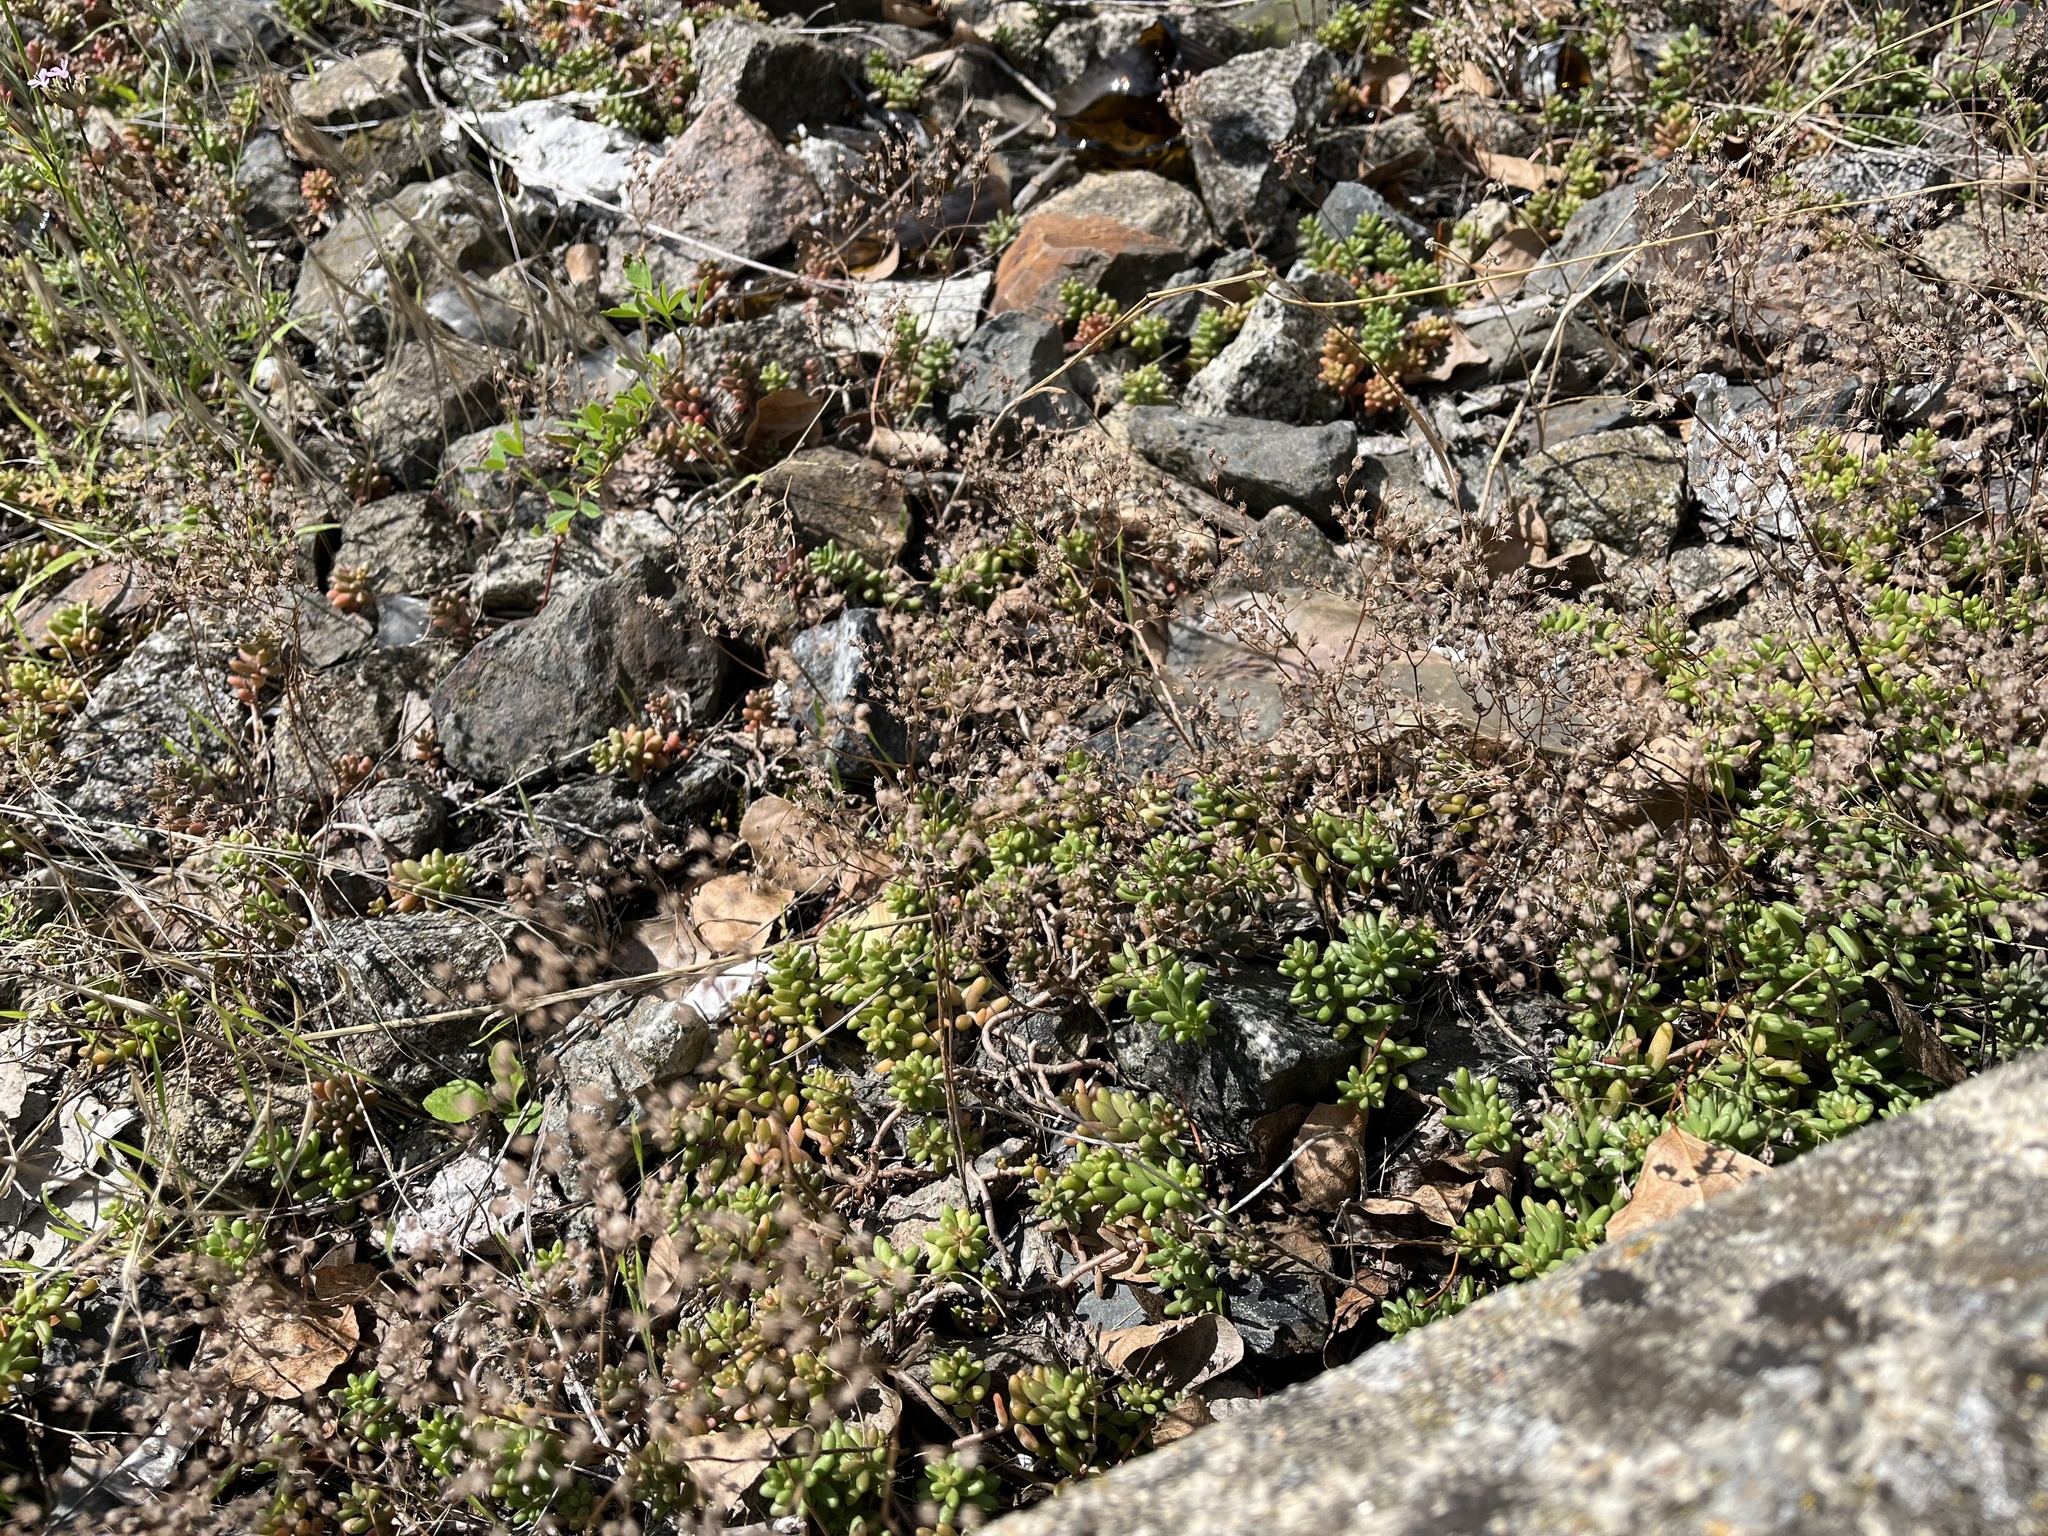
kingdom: Plantae
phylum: Tracheophyta
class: Magnoliopsida
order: Saxifragales
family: Crassulaceae
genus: Sedum
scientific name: Sedum album
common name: White stonecrop
